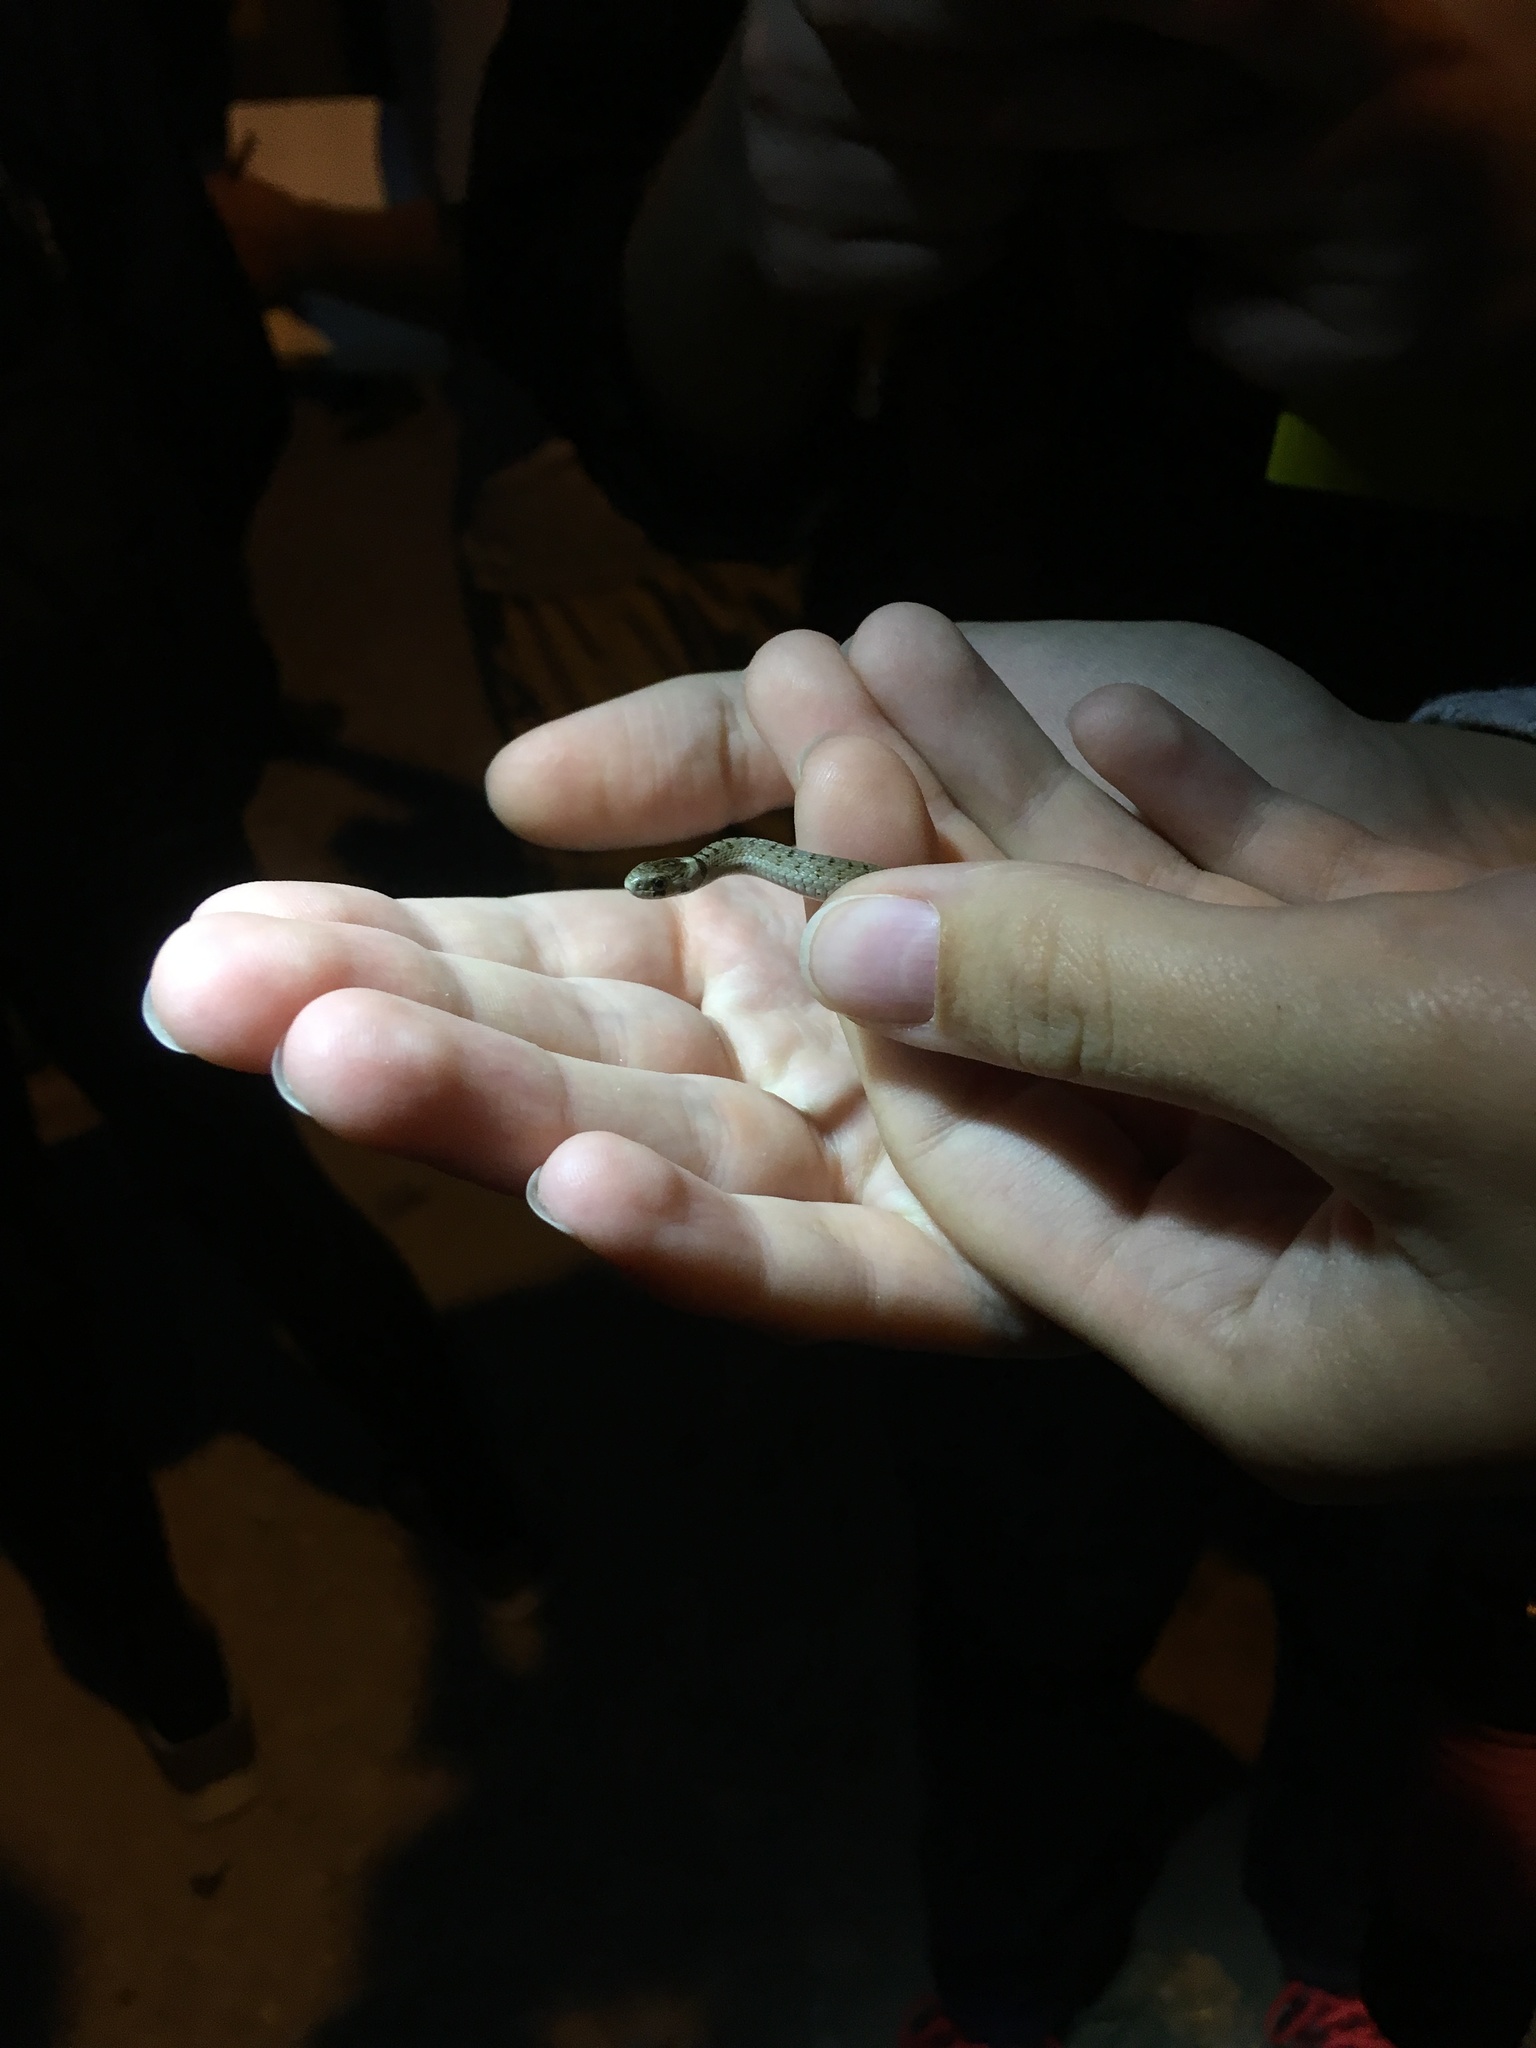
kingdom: Animalia
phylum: Chordata
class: Squamata
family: Colubridae
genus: Storeria
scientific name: Storeria dekayi
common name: (dekay’s) brown snake
